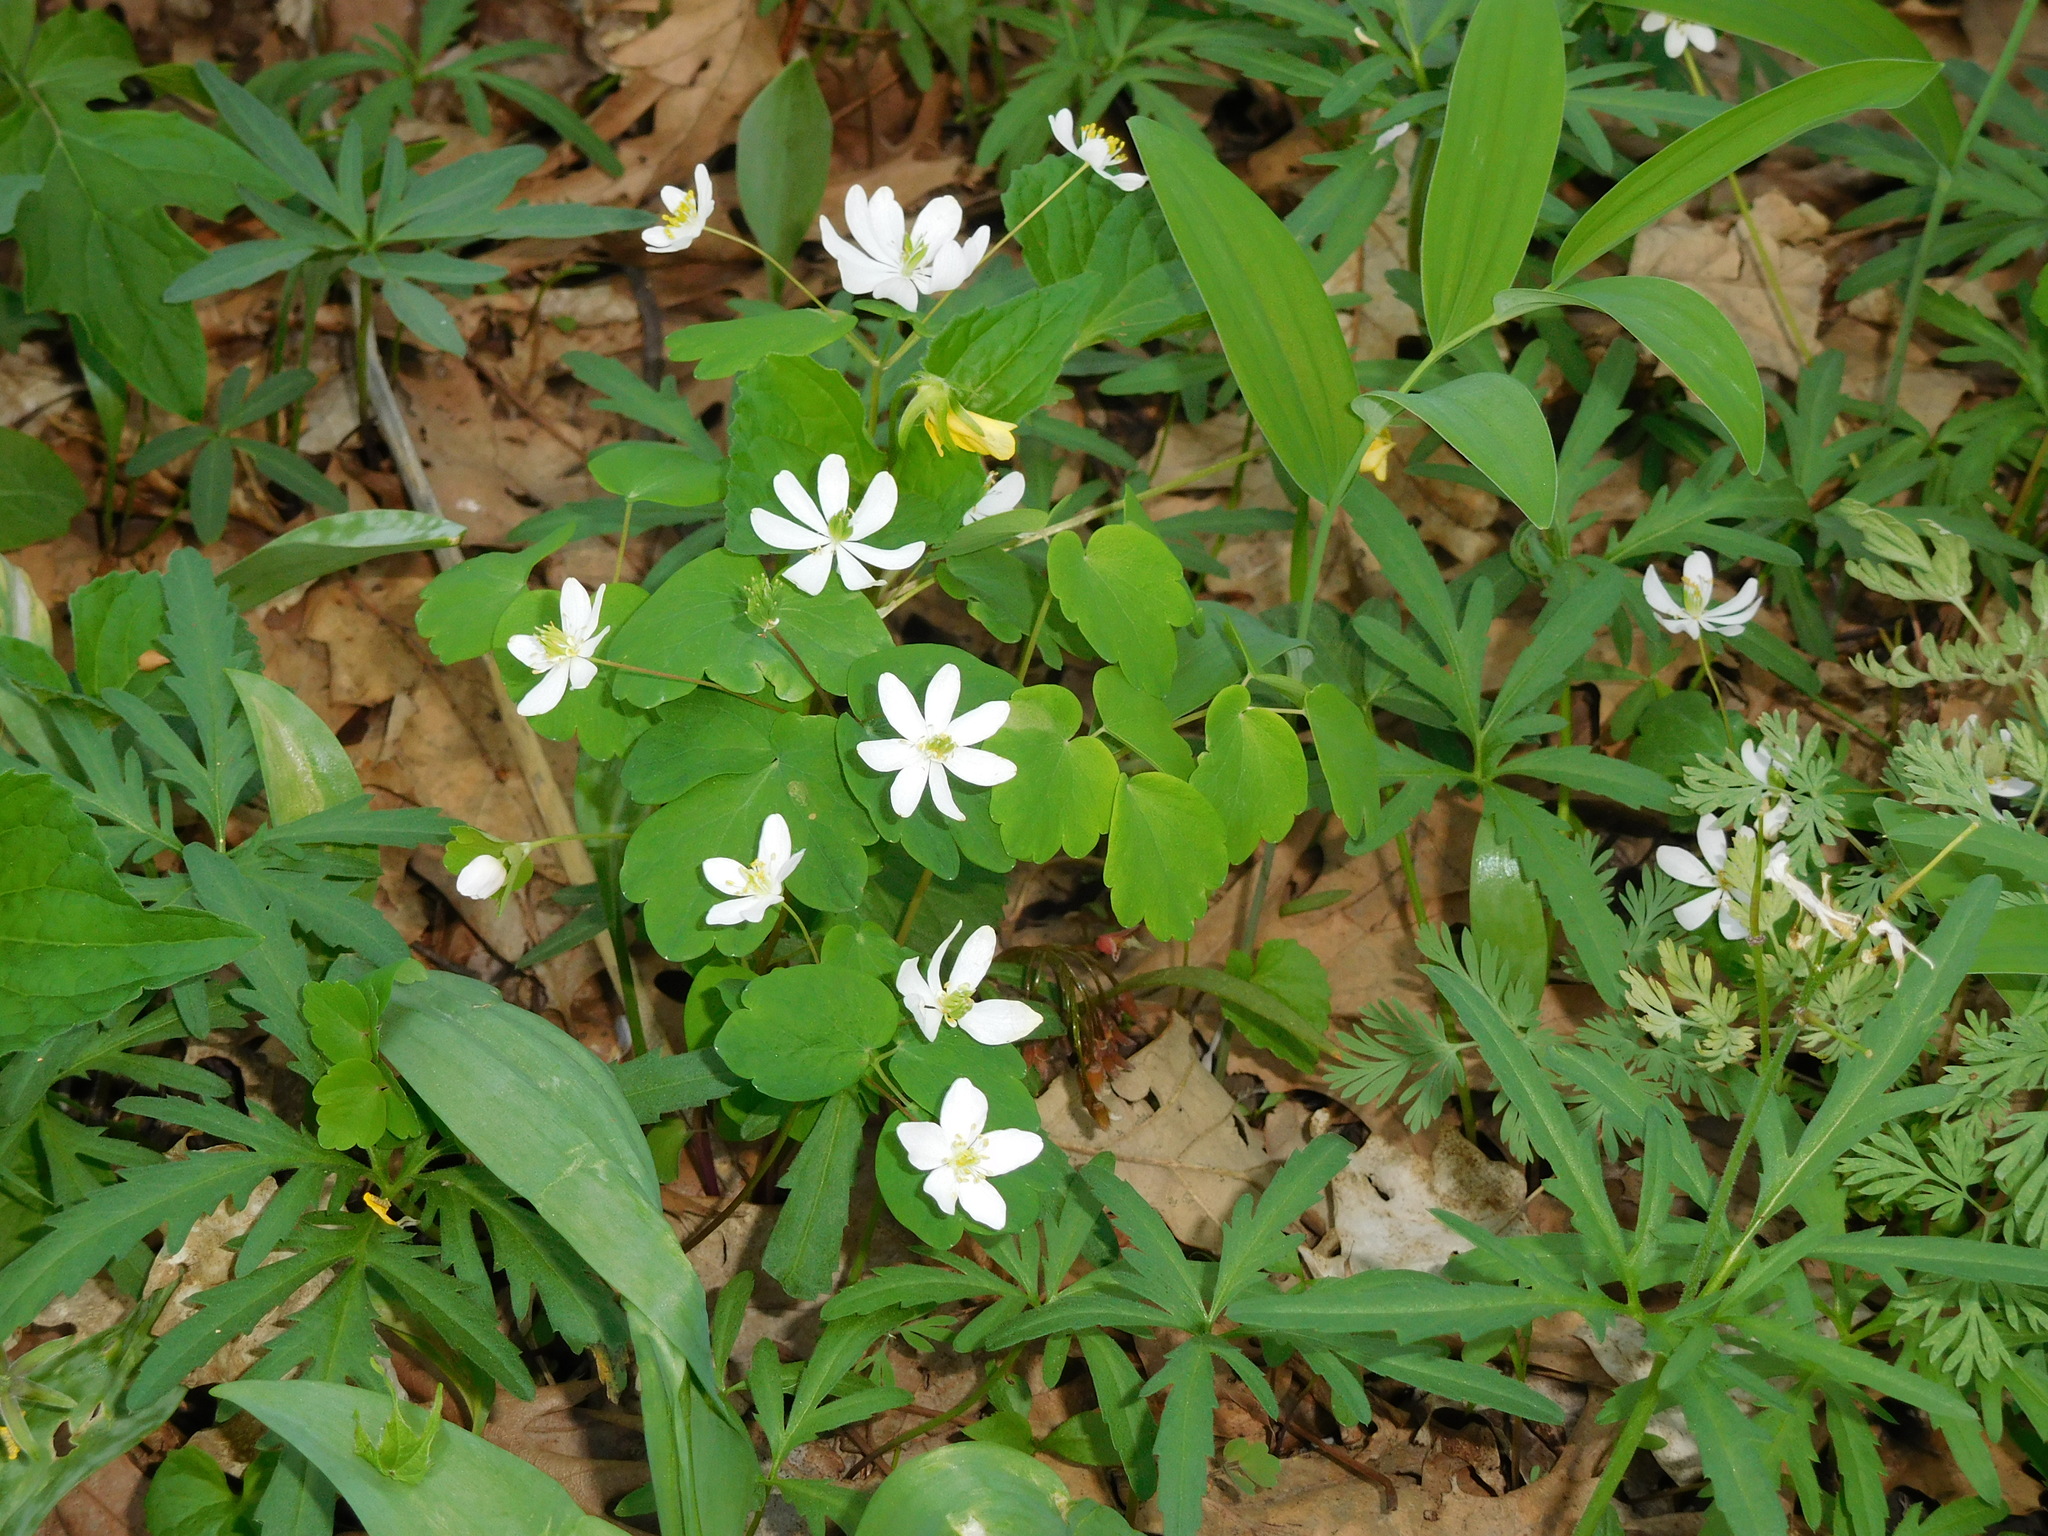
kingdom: Plantae
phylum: Tracheophyta
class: Magnoliopsida
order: Ranunculales
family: Ranunculaceae
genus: Thalictrum
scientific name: Thalictrum thalictroides
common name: Rue-anemone
